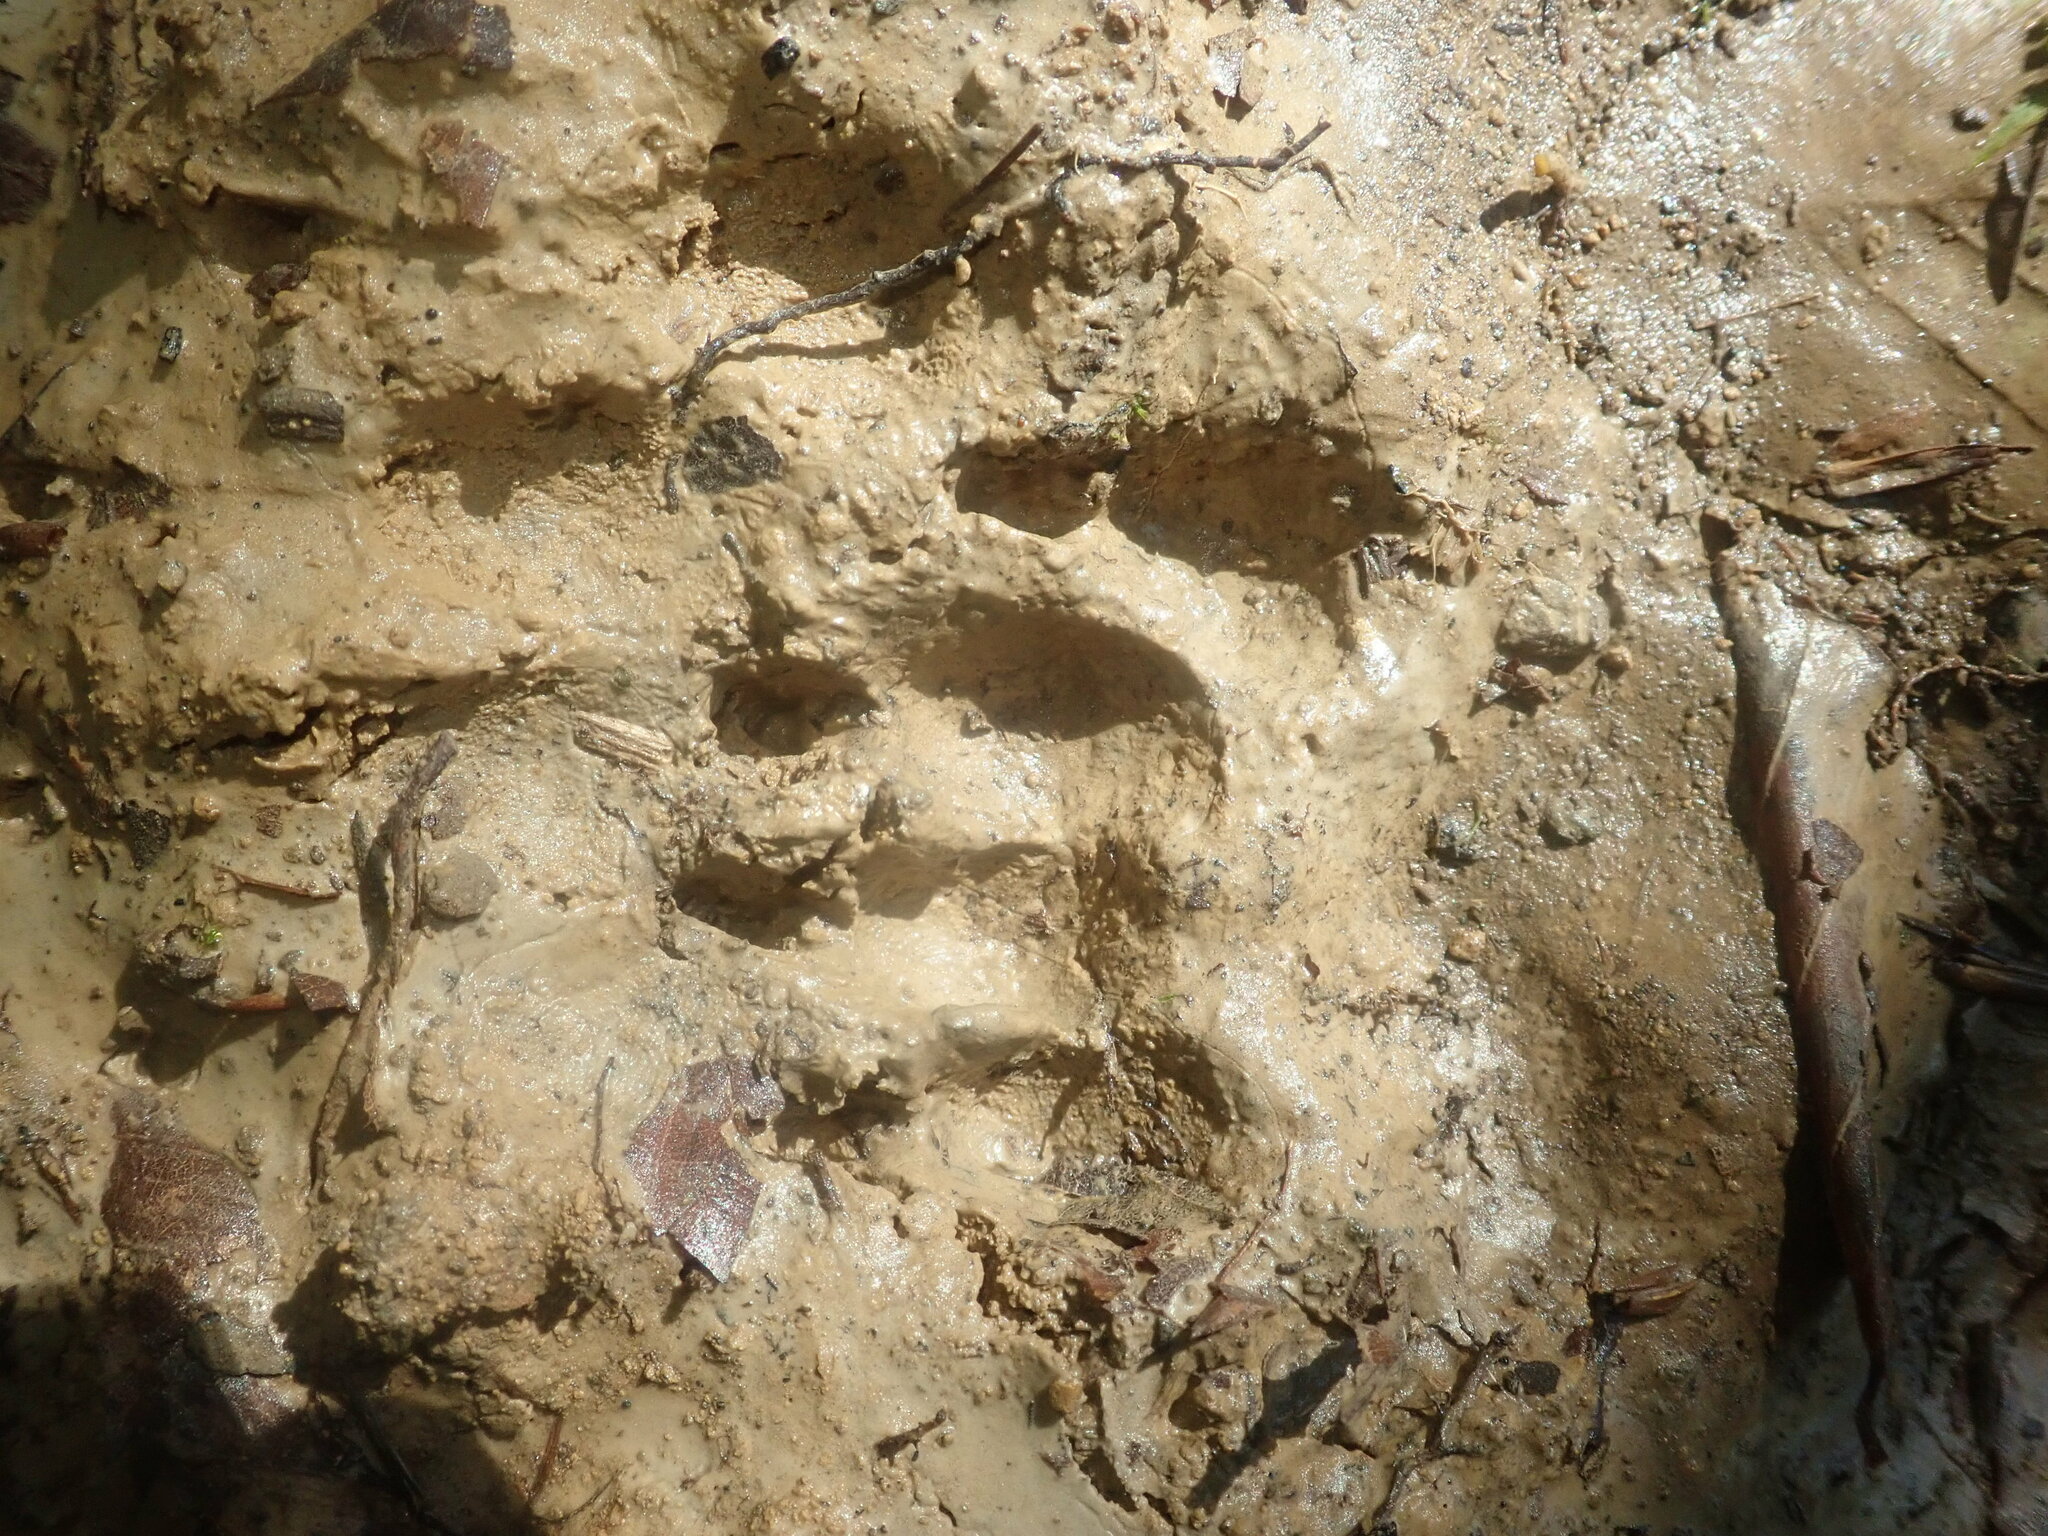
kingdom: Animalia
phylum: Chordata
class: Mammalia
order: Carnivora
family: Mustelidae
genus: Meles
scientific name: Meles meles
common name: Eurasian badger
